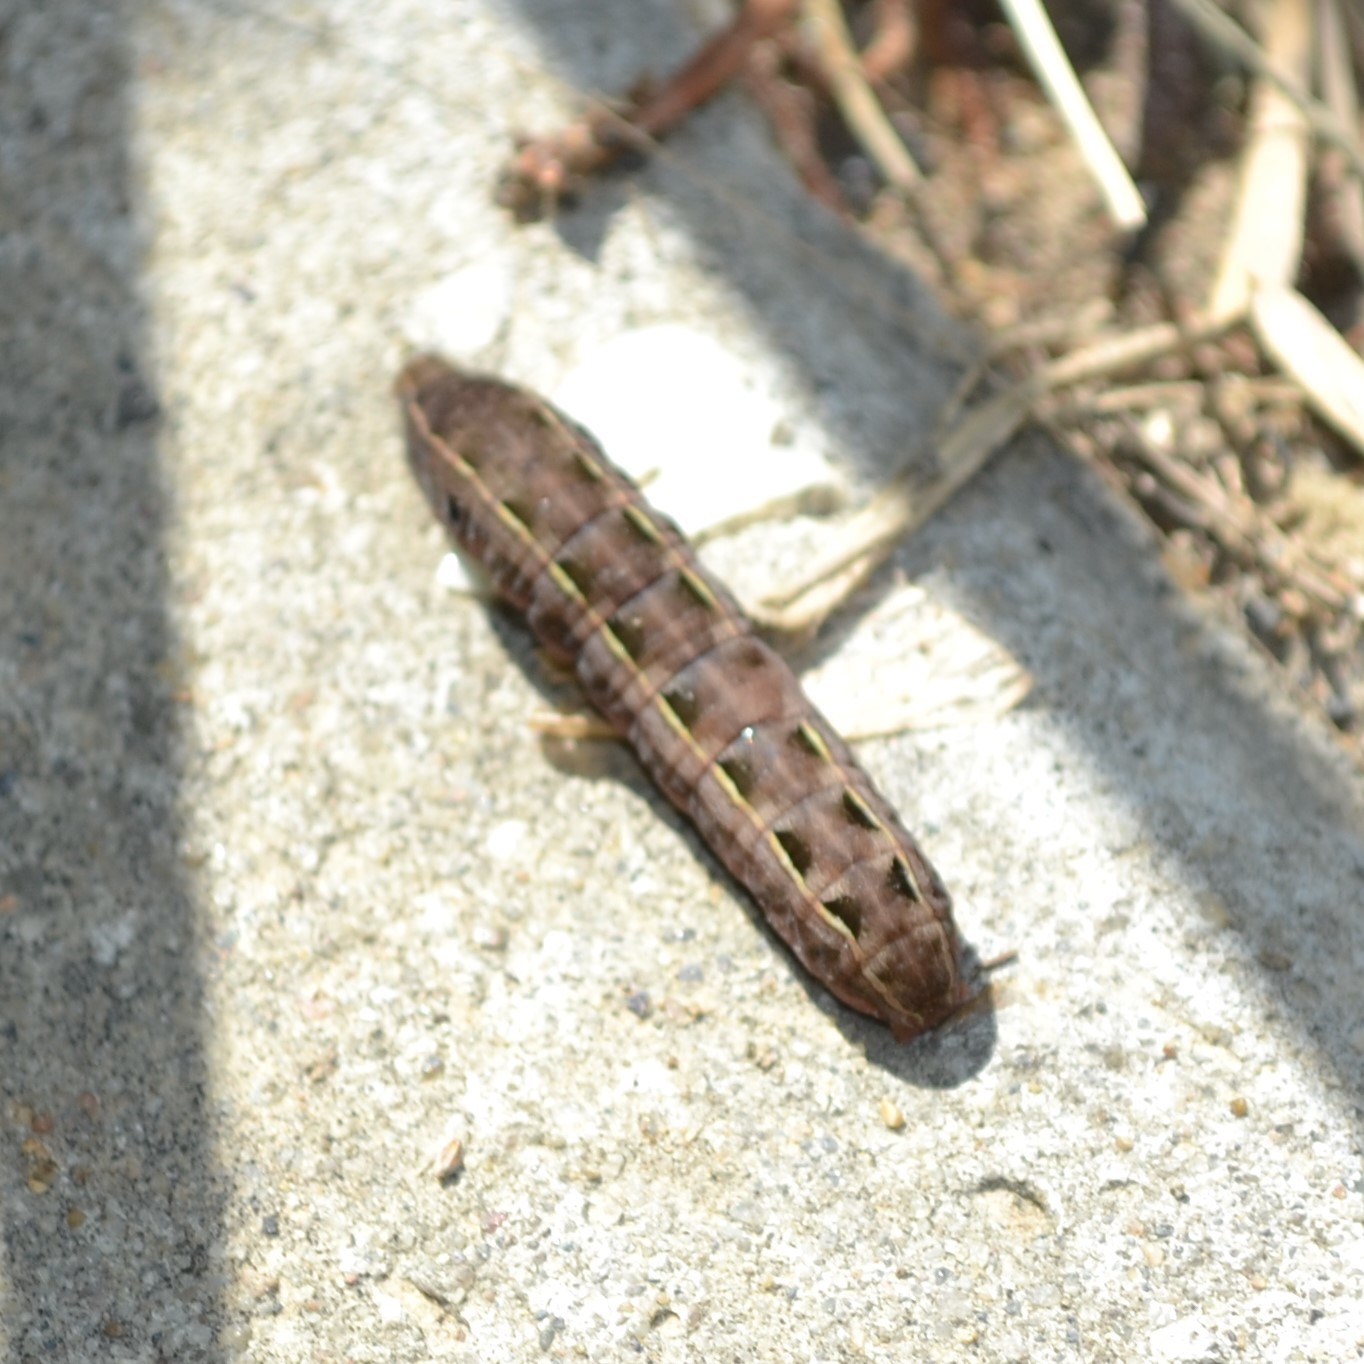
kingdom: Animalia
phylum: Arthropoda
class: Insecta
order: Lepidoptera
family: Noctuidae
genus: Spodoptera
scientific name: Spodoptera ornithogalli
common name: Yellow-striped armyworm
